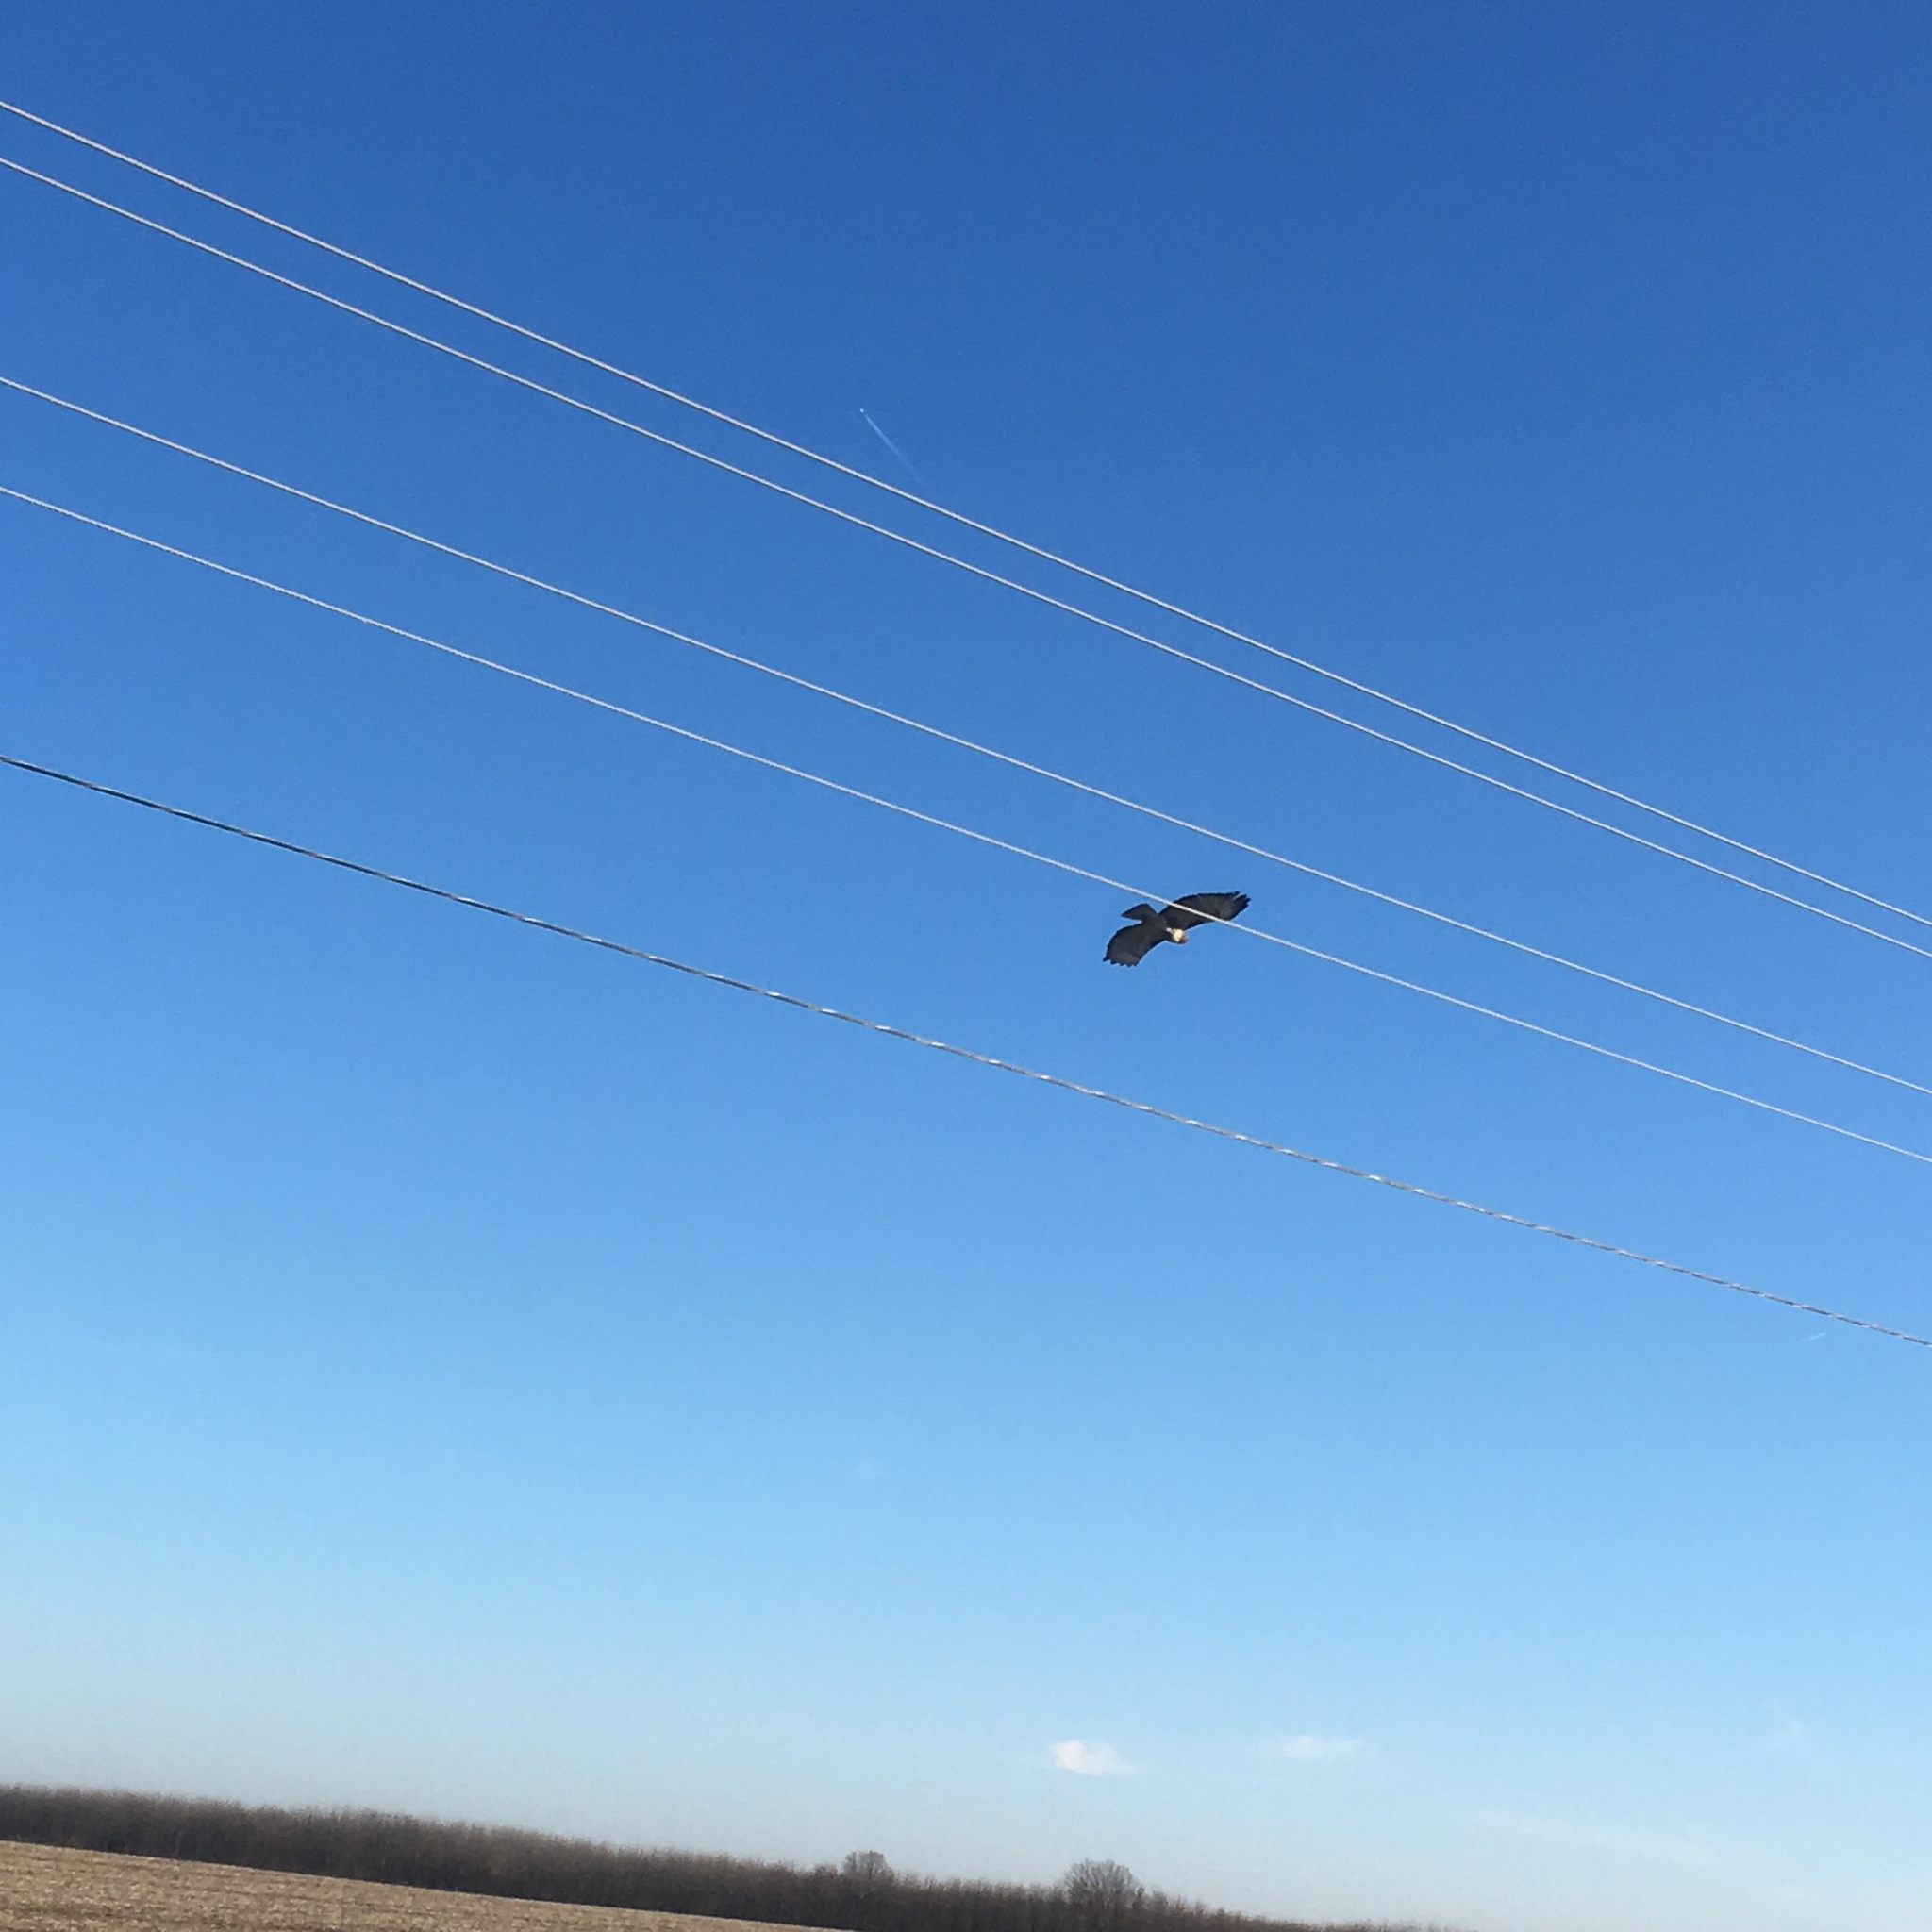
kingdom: Animalia
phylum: Chordata
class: Aves
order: Accipitriformes
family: Accipitridae
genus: Buteo
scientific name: Buteo jamaicensis
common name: Red-tailed hawk
